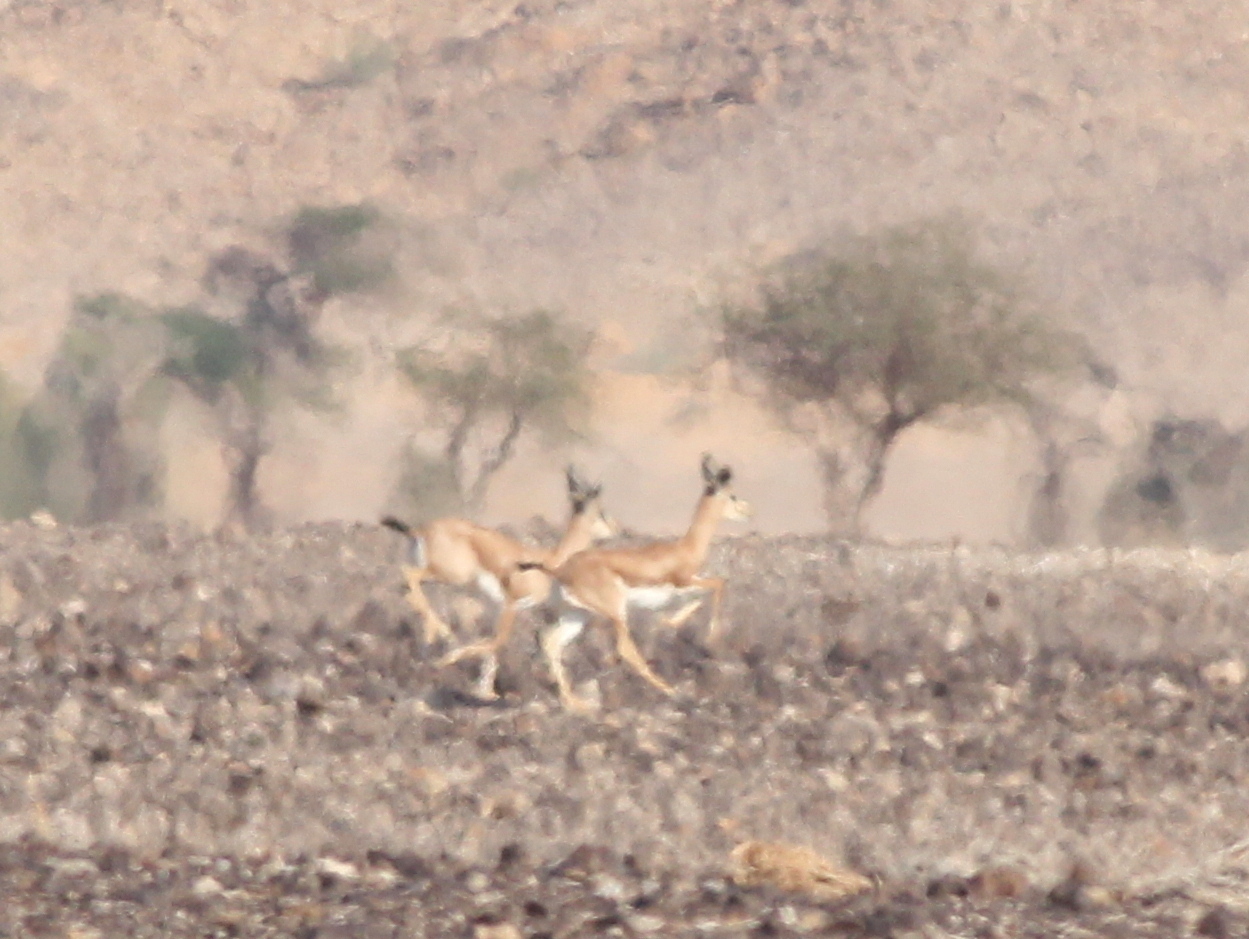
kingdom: Animalia
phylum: Chordata
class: Mammalia
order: Artiodactyla
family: Bovidae
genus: Gazella
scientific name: Gazella dorcas
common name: Dorcas gazelle
